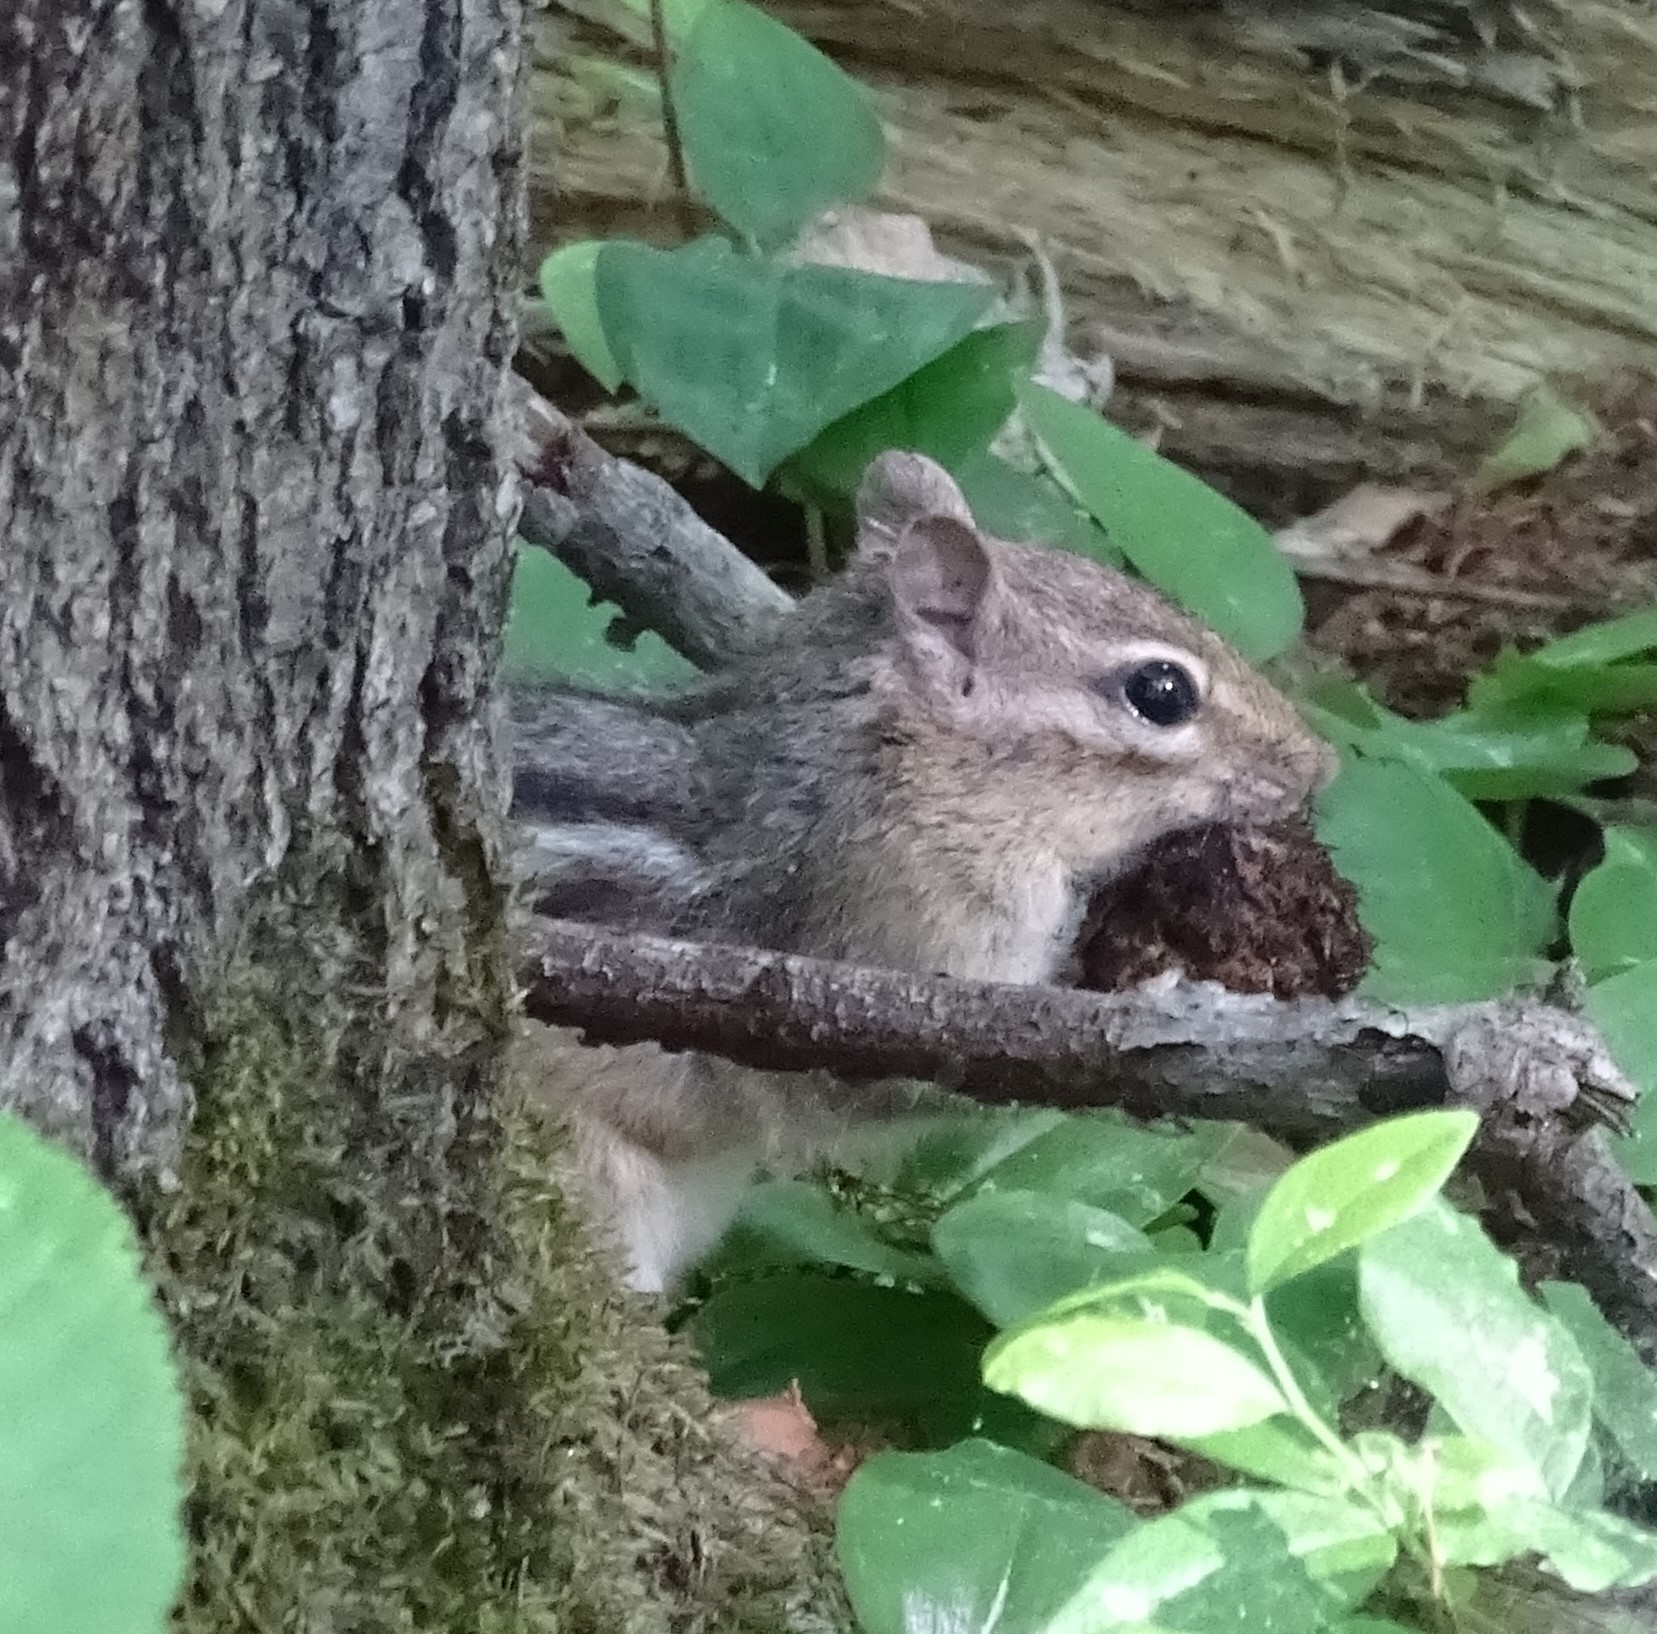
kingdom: Animalia
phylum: Chordata
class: Mammalia
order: Rodentia
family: Sciuridae
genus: Tamias
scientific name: Tamias striatus
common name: Eastern chipmunk
